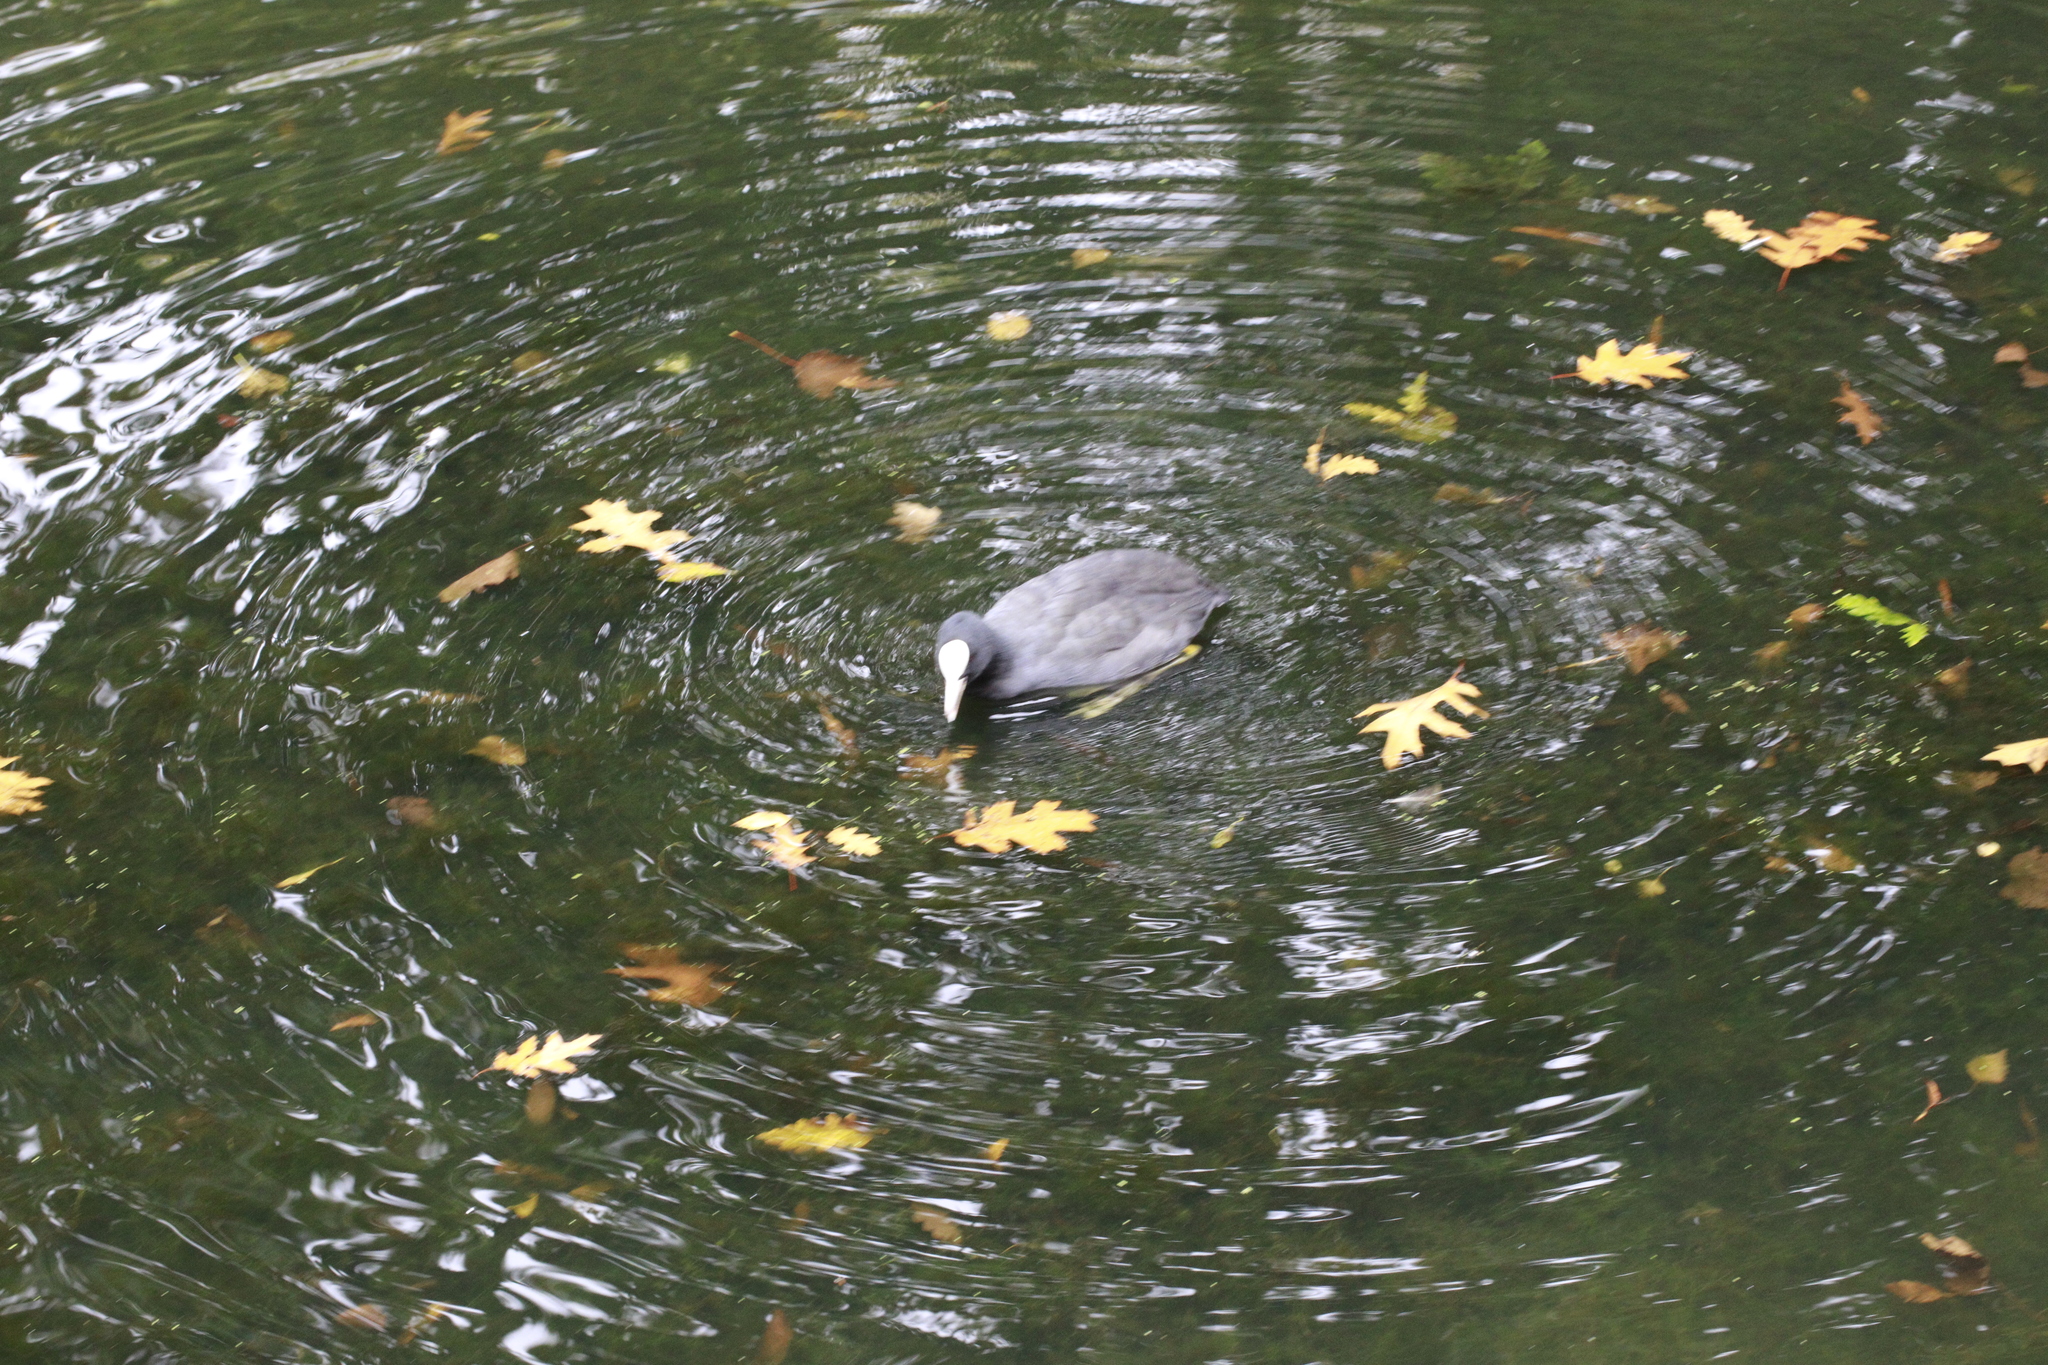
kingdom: Animalia
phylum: Chordata
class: Aves
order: Gruiformes
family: Rallidae
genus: Fulica
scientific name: Fulica atra
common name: Eurasian coot
